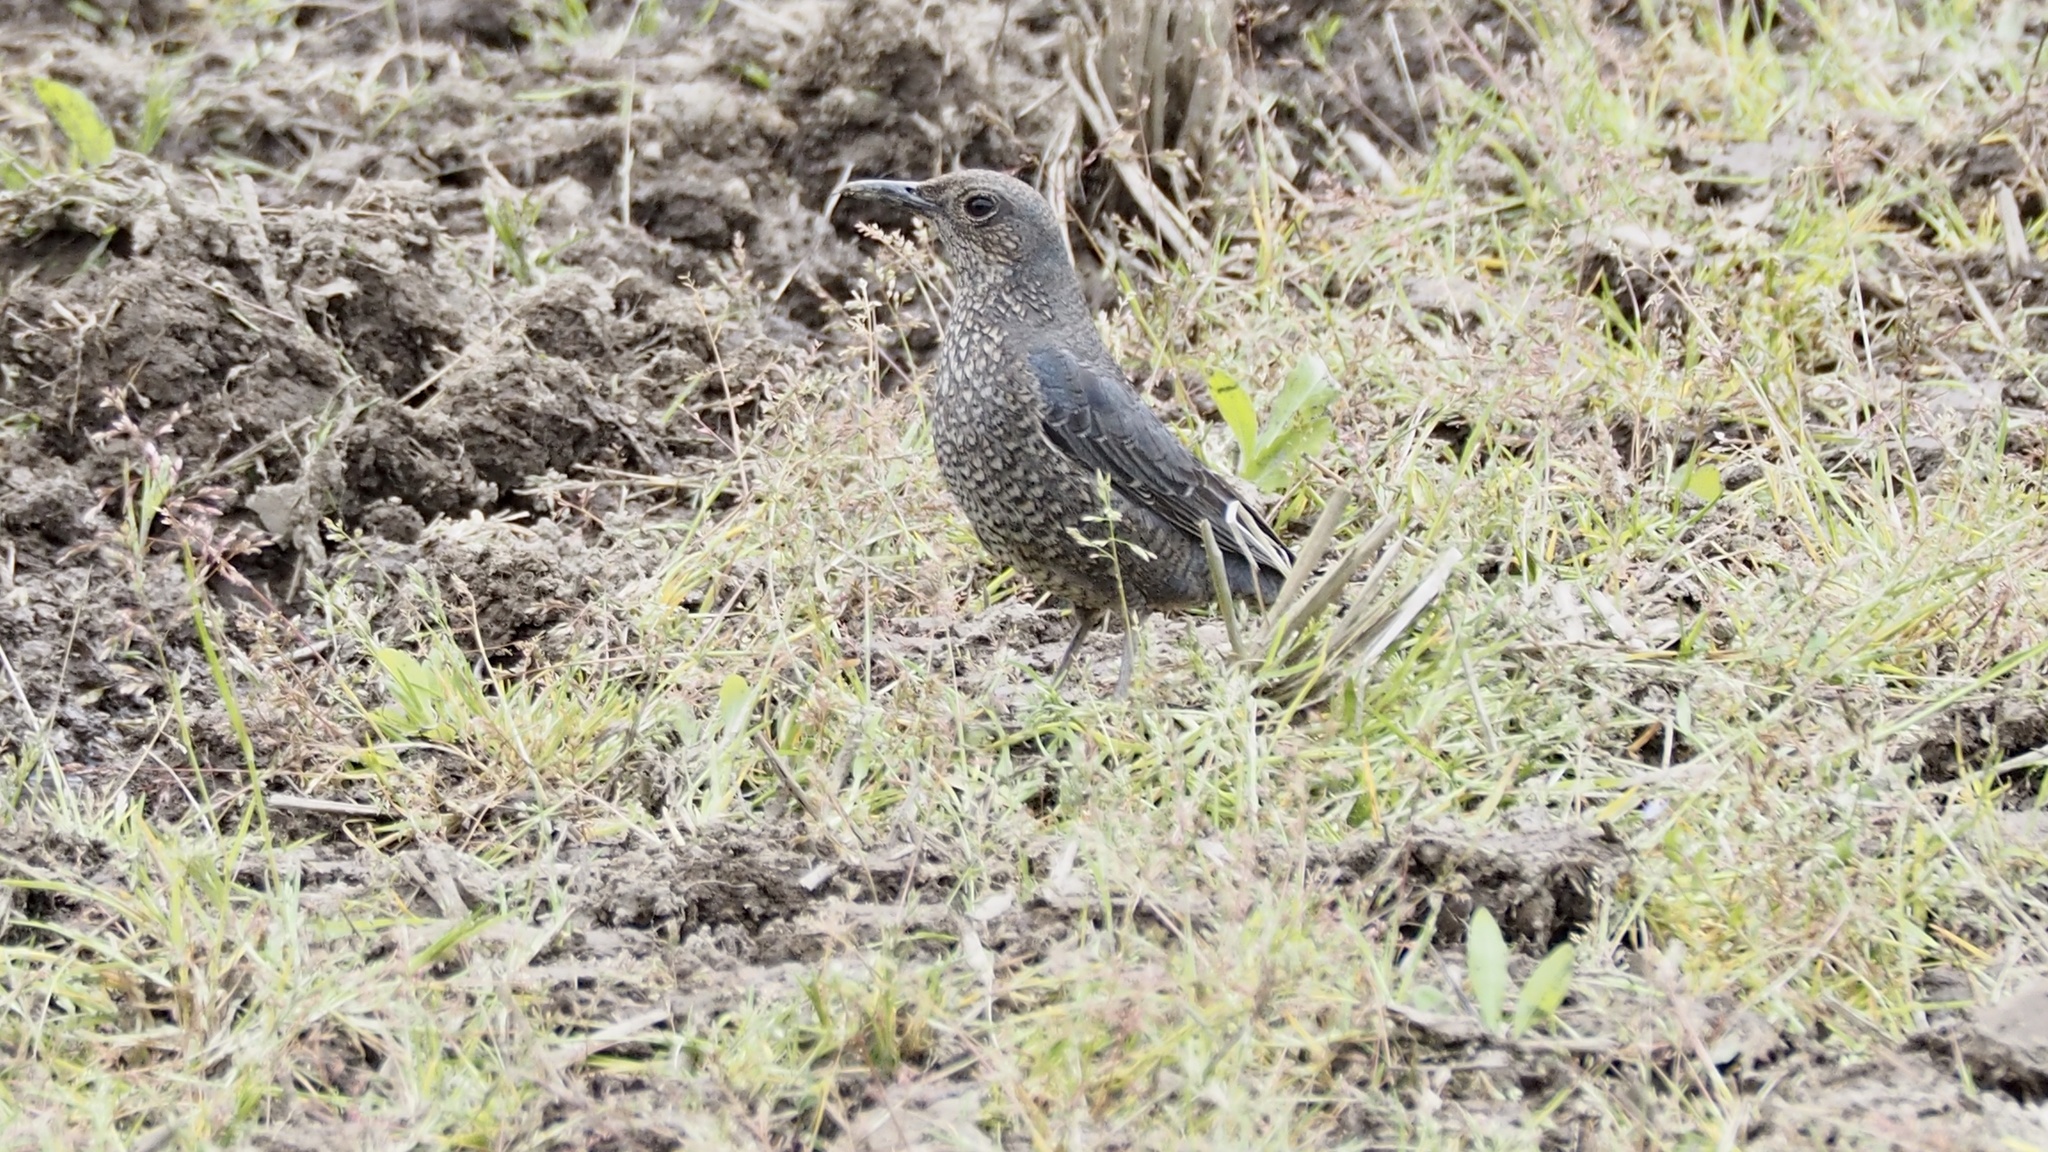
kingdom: Animalia
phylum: Chordata
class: Aves
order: Passeriformes
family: Muscicapidae
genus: Monticola
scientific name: Monticola solitarius
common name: Blue rock thrush
